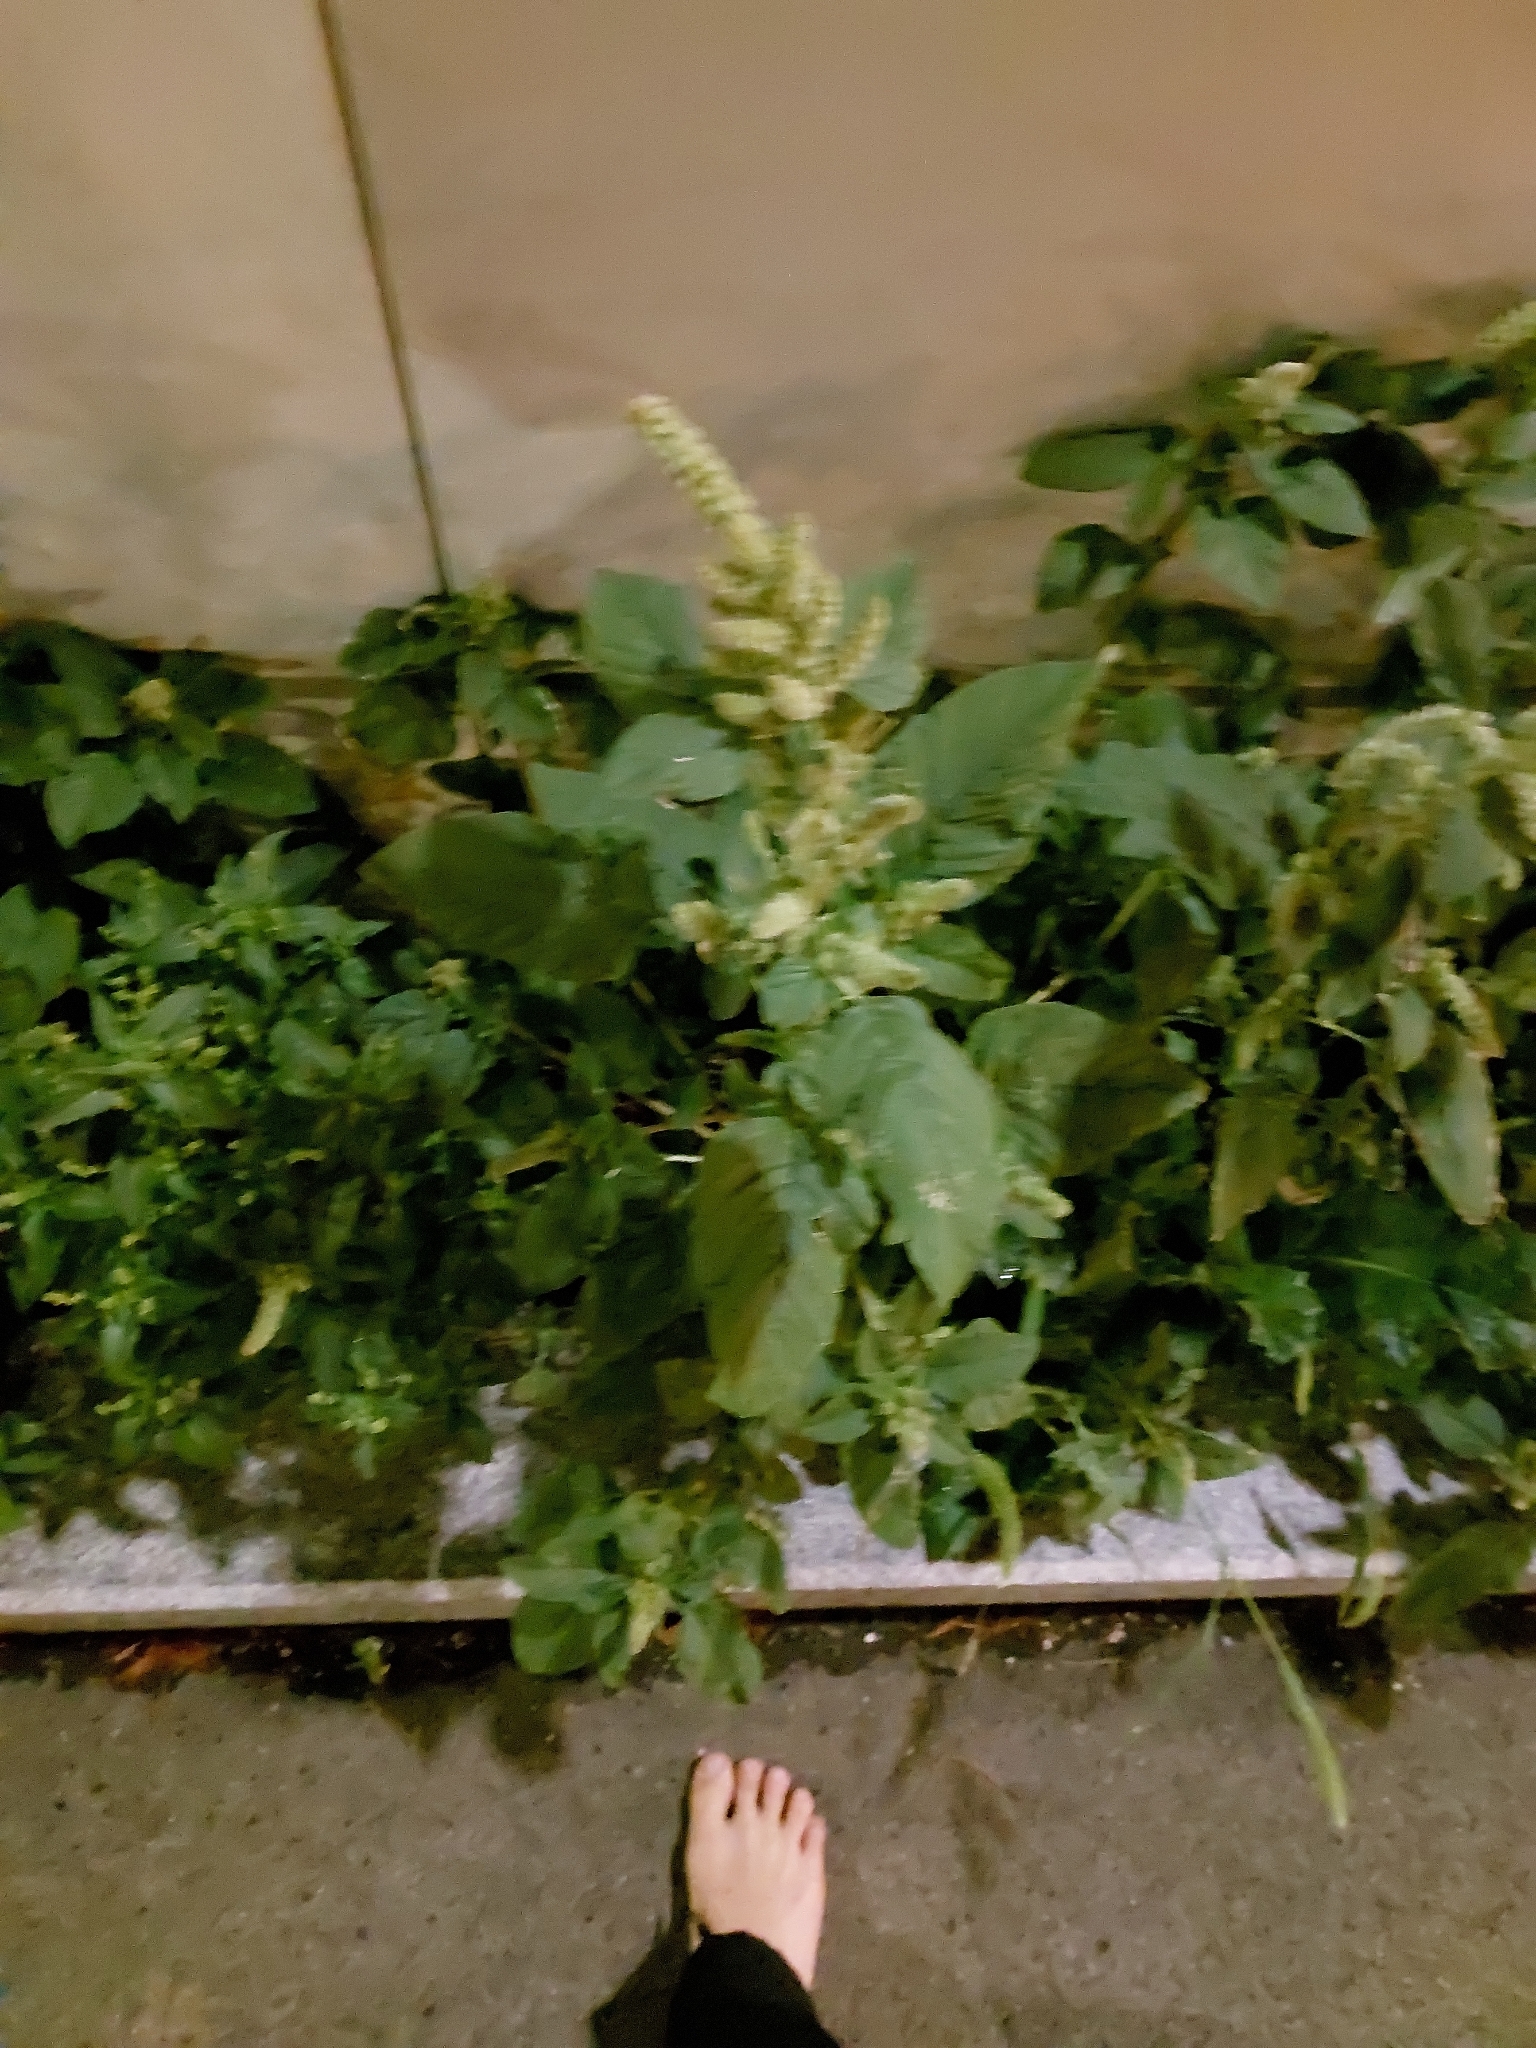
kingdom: Plantae
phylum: Tracheophyta
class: Magnoliopsida
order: Caryophyllales
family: Amaranthaceae
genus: Amaranthus
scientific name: Amaranthus retroflexus
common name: Redroot amaranth
